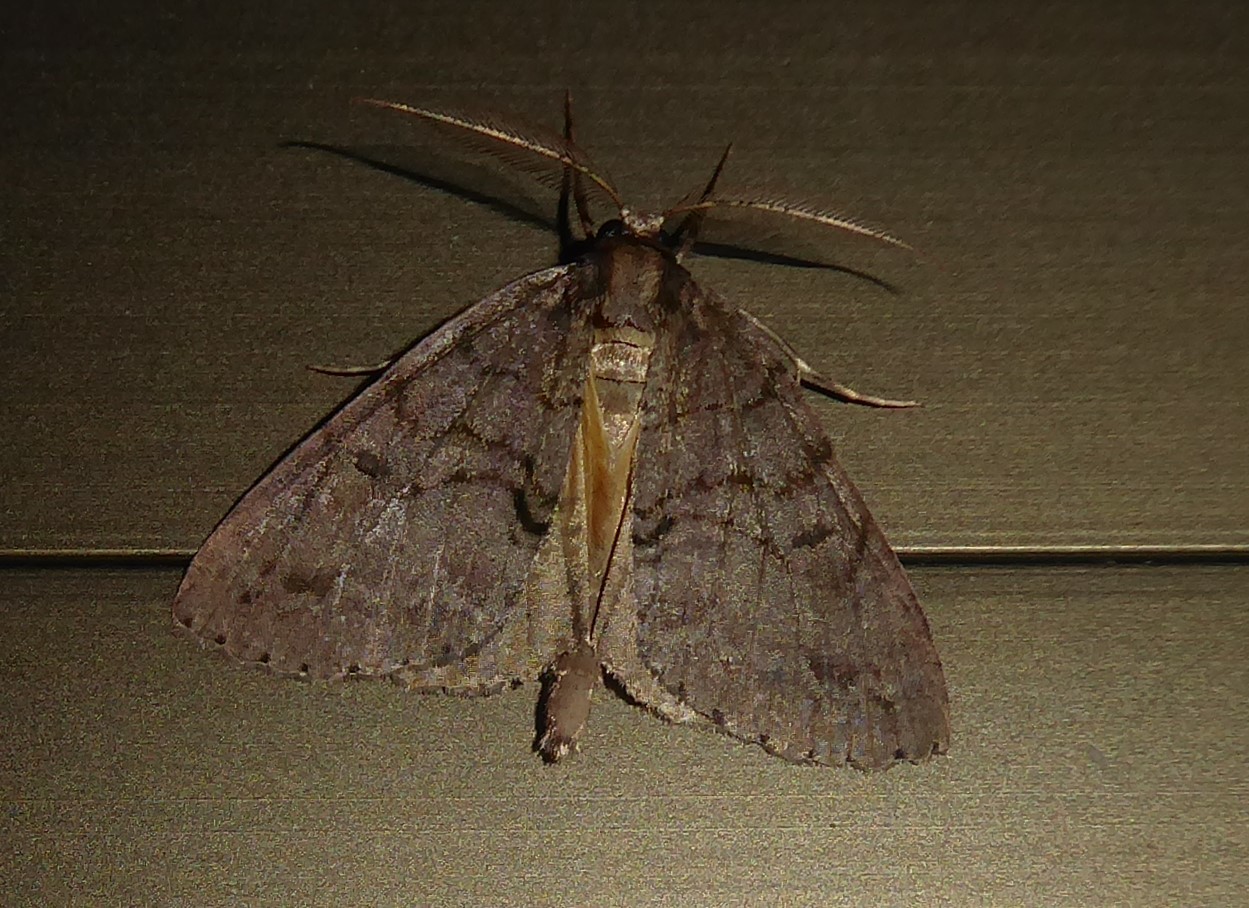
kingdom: Animalia
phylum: Arthropoda
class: Insecta
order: Lepidoptera
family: Geometridae
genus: Pseudocoremia
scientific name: Pseudocoremia suavis
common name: Common forest looper
